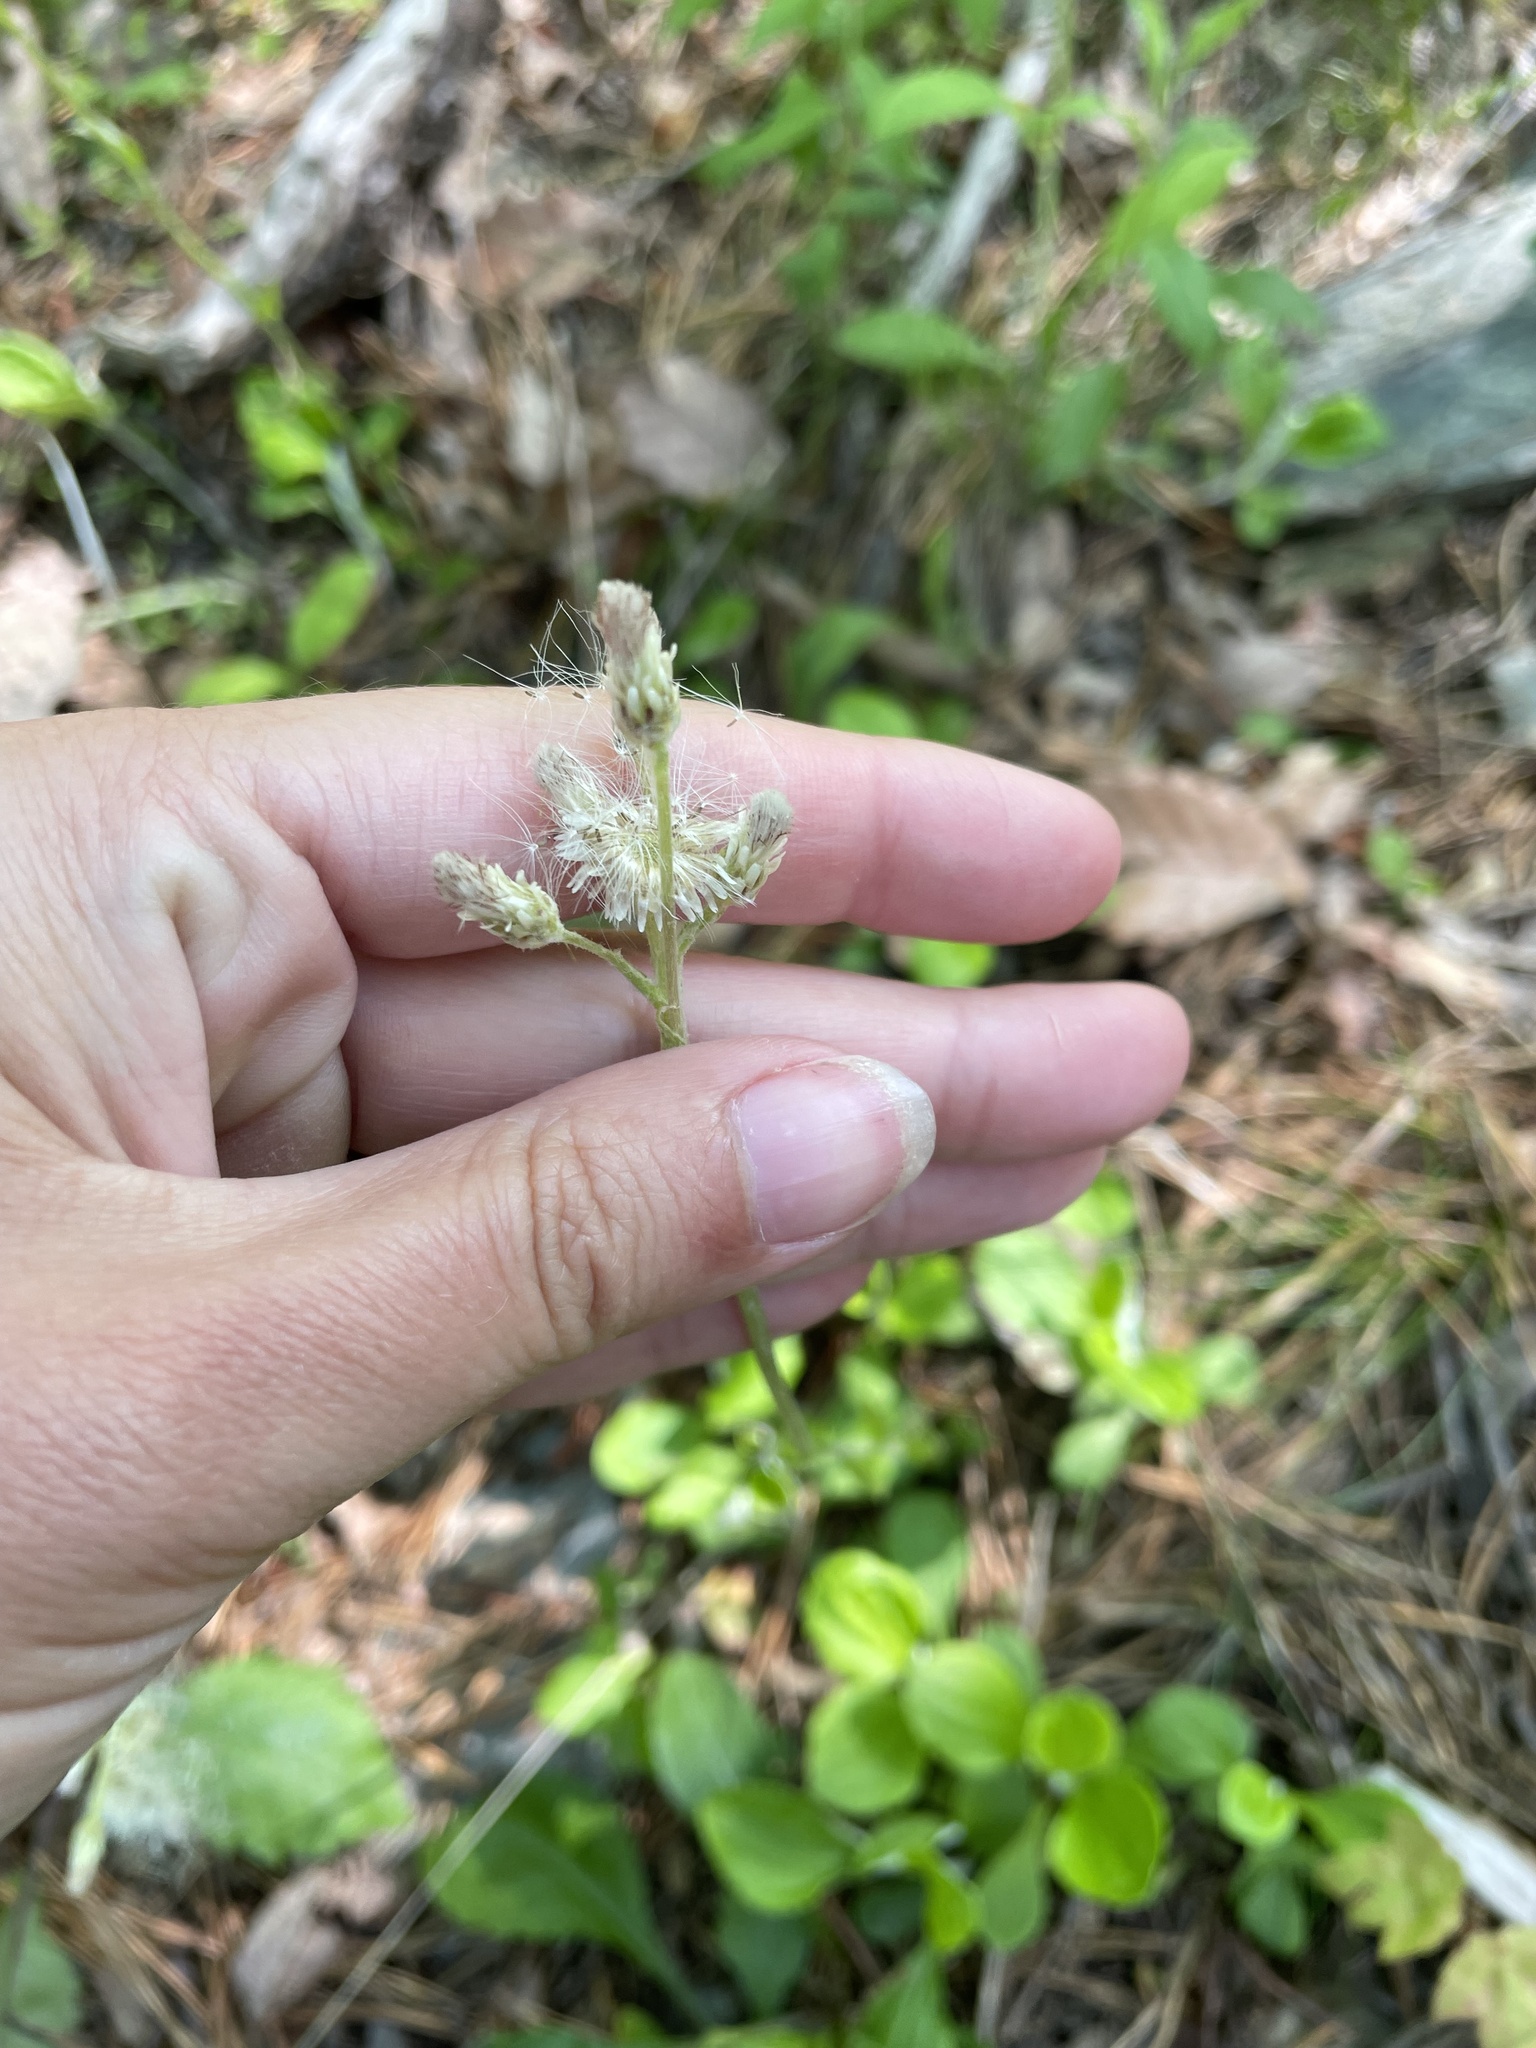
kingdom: Plantae
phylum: Tracheophyta
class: Magnoliopsida
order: Asterales
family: Asteraceae
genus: Antennaria
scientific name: Antennaria plantaginifolia
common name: Plantain-leaved pussytoes
